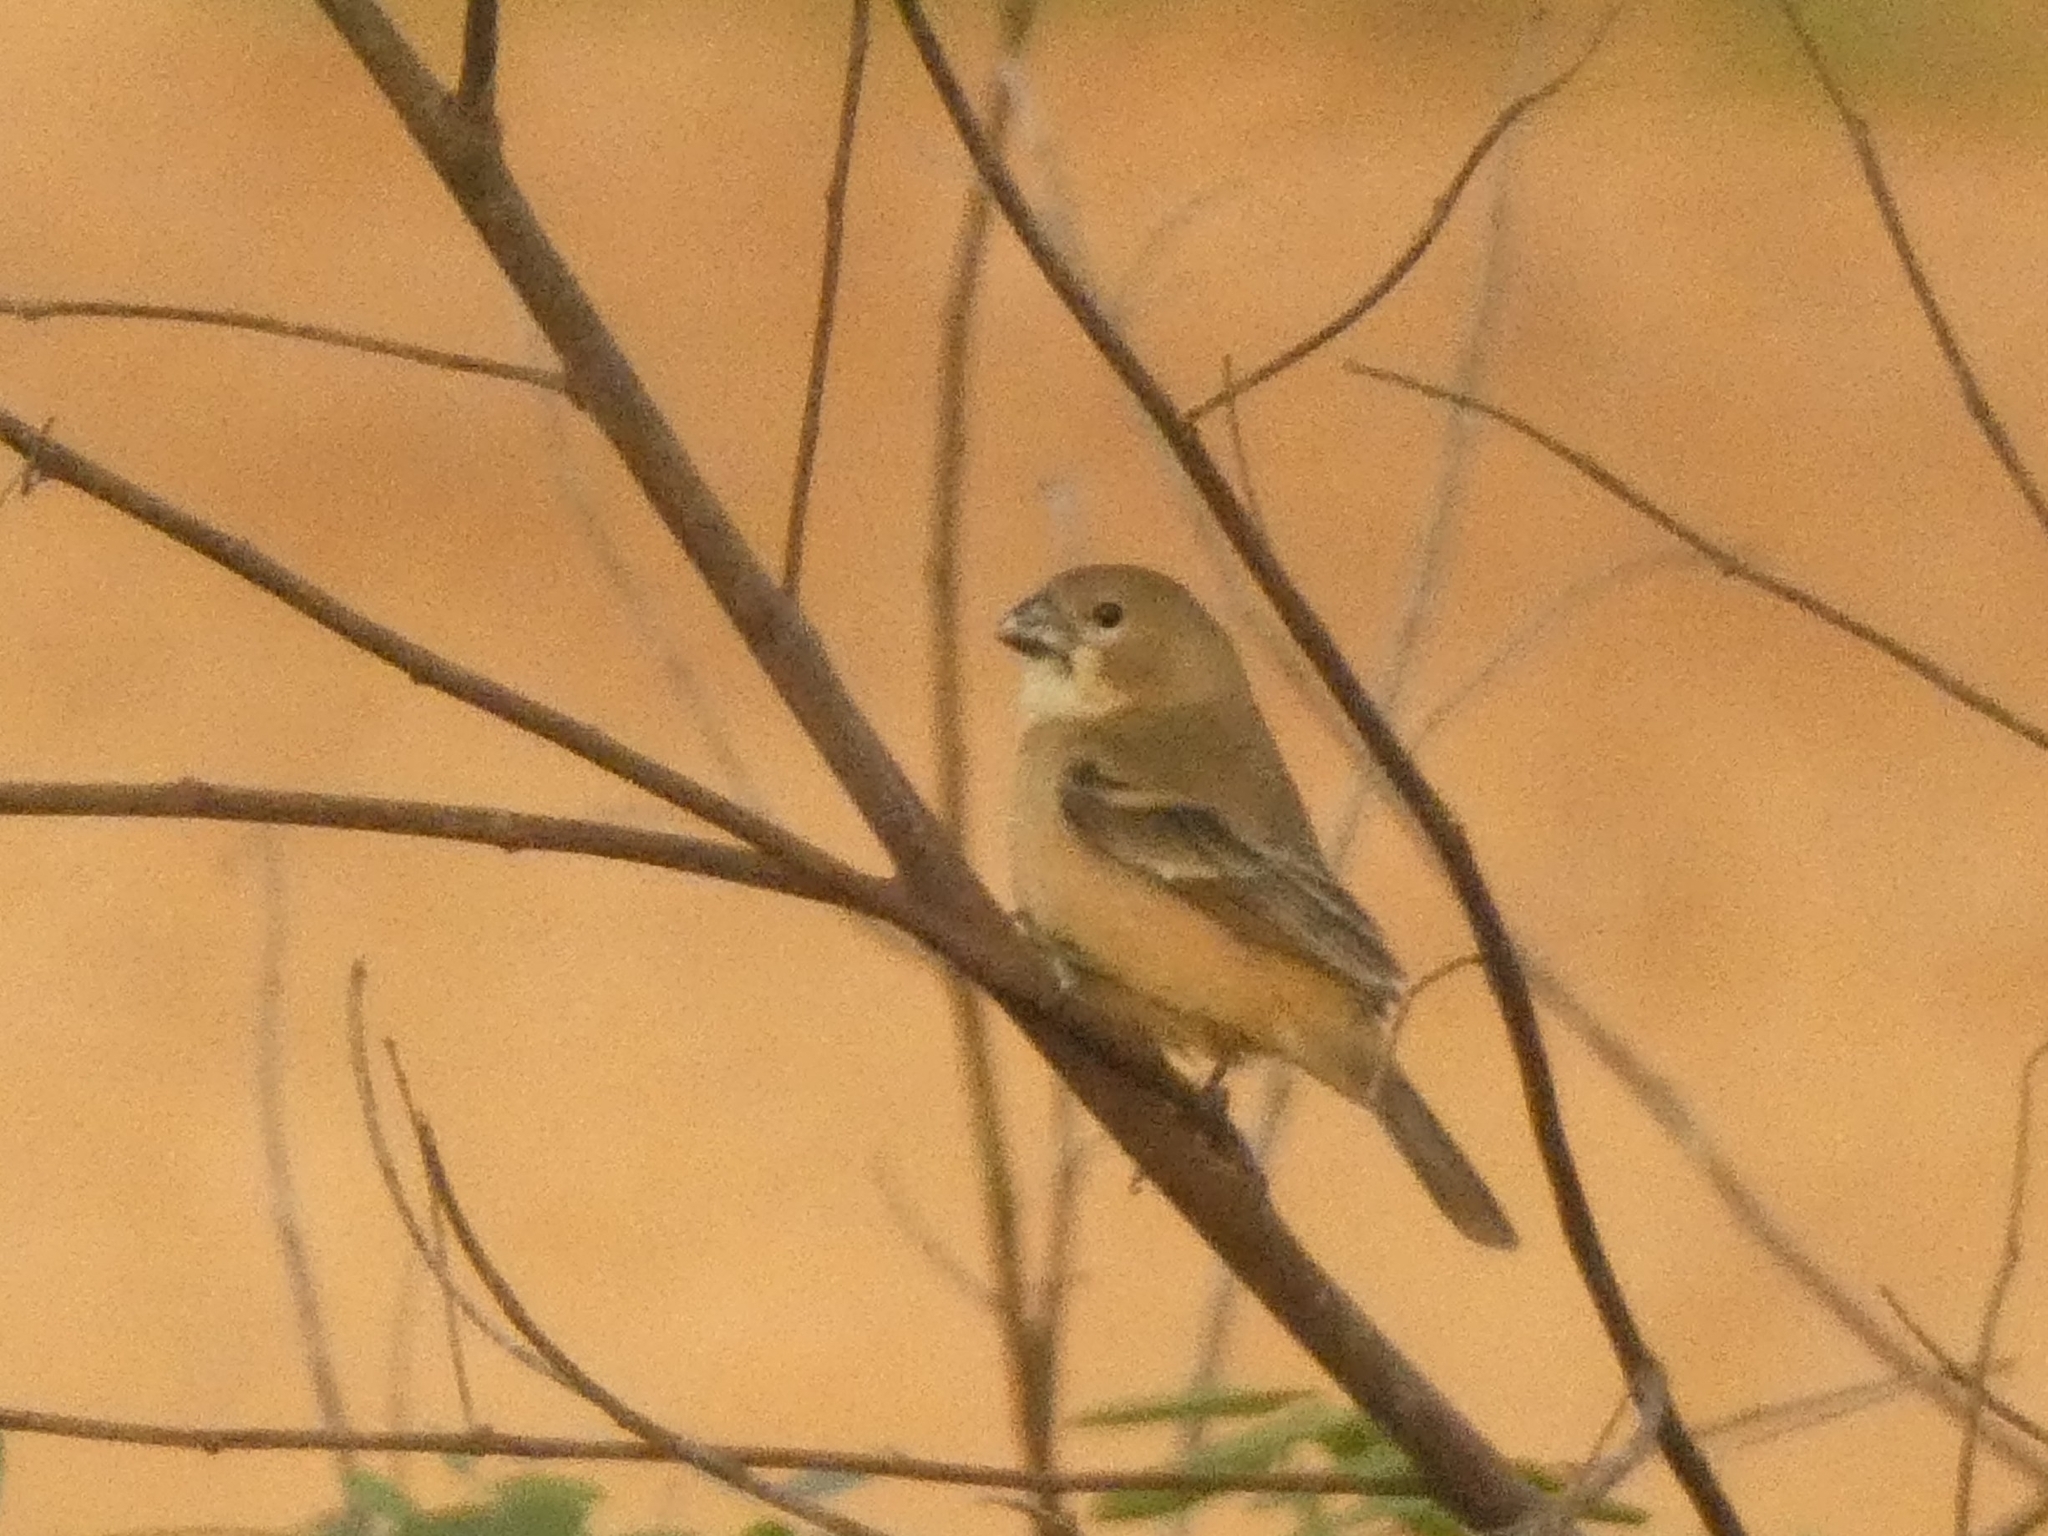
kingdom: Animalia
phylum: Chordata
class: Aves
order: Passeriformes
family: Thraupidae
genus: Sporophila
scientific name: Sporophila collaris
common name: Rusty-collared seedeater
